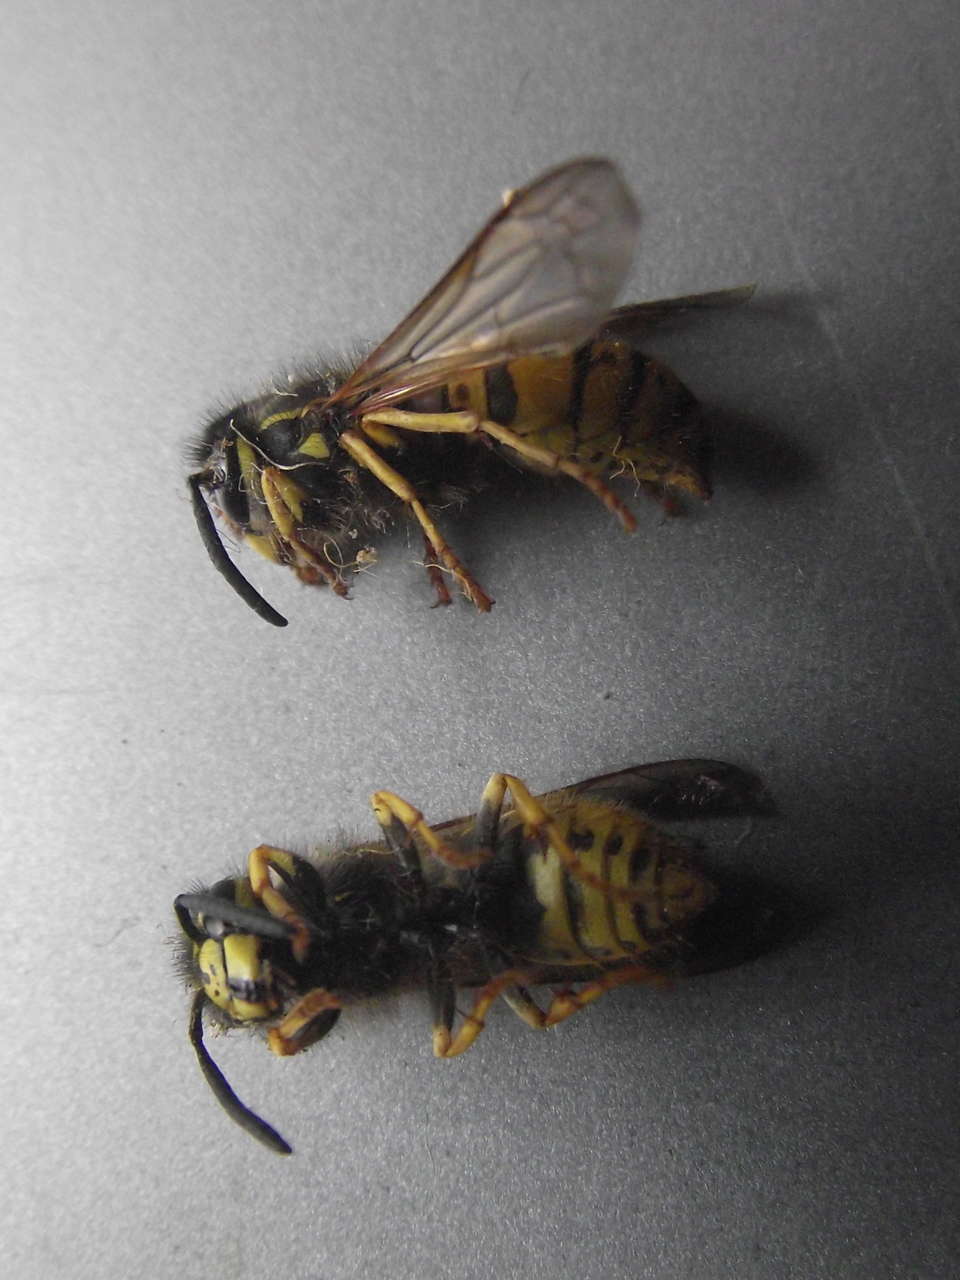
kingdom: Animalia
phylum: Arthropoda
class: Insecta
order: Hymenoptera
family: Vespidae
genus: Vespula
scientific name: Vespula germanica
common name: German wasp
